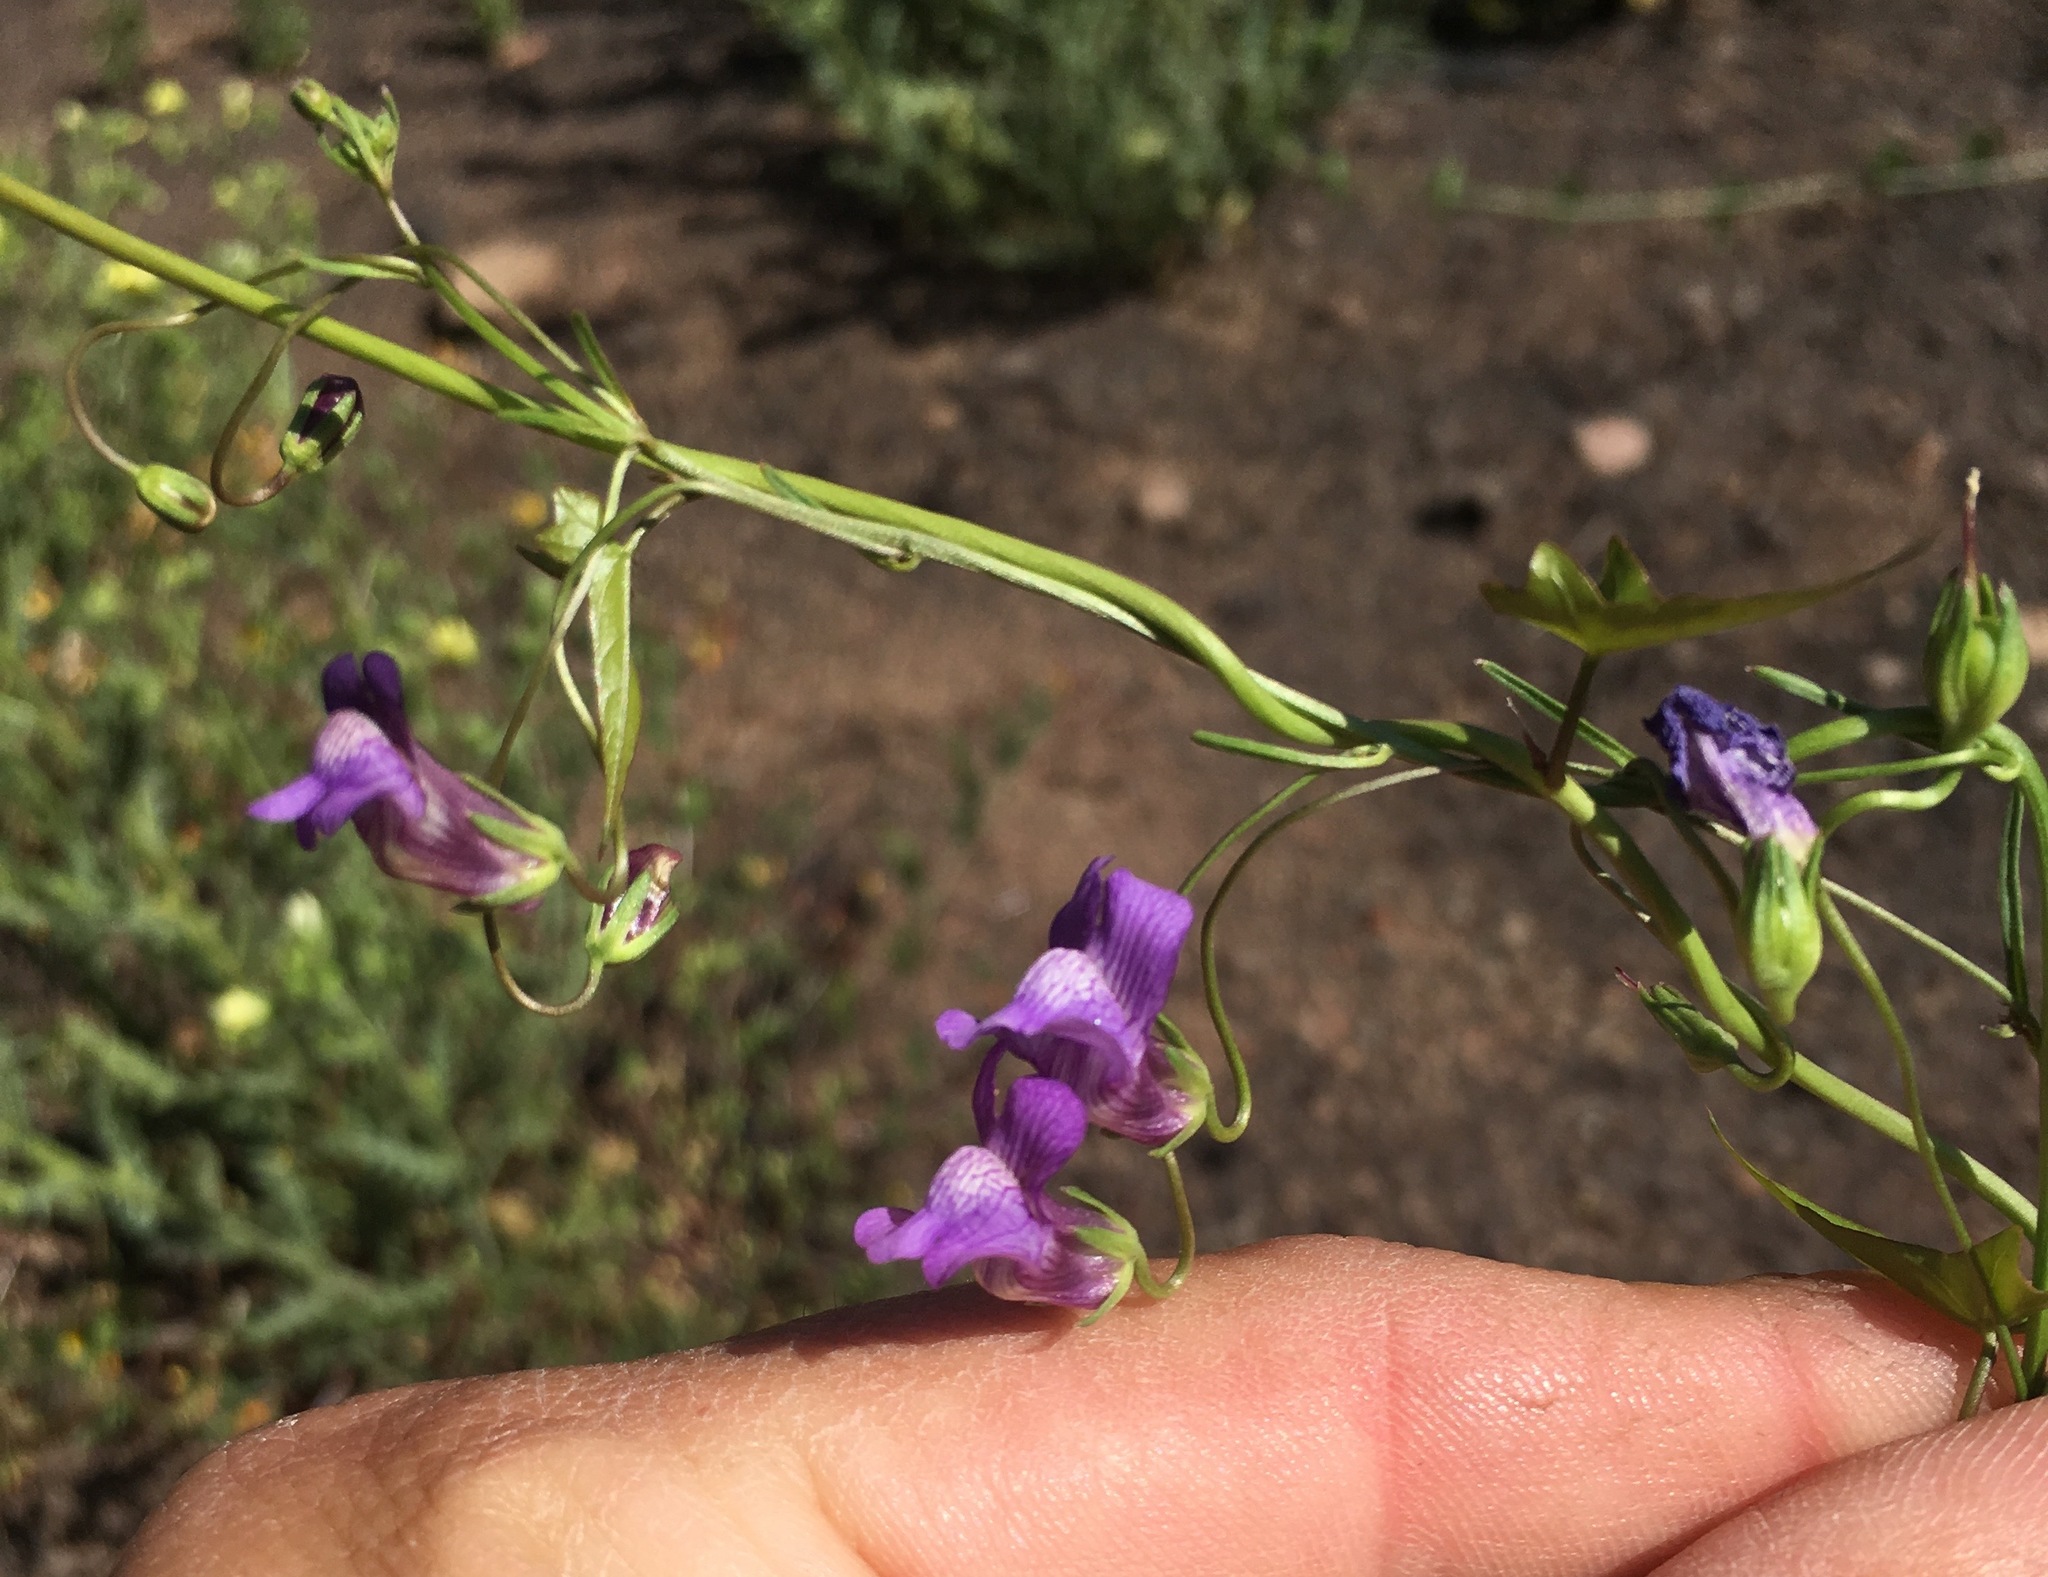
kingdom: Plantae
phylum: Tracheophyta
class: Magnoliopsida
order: Lamiales
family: Plantaginaceae
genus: Neogaerrhinum
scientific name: Neogaerrhinum strictum
